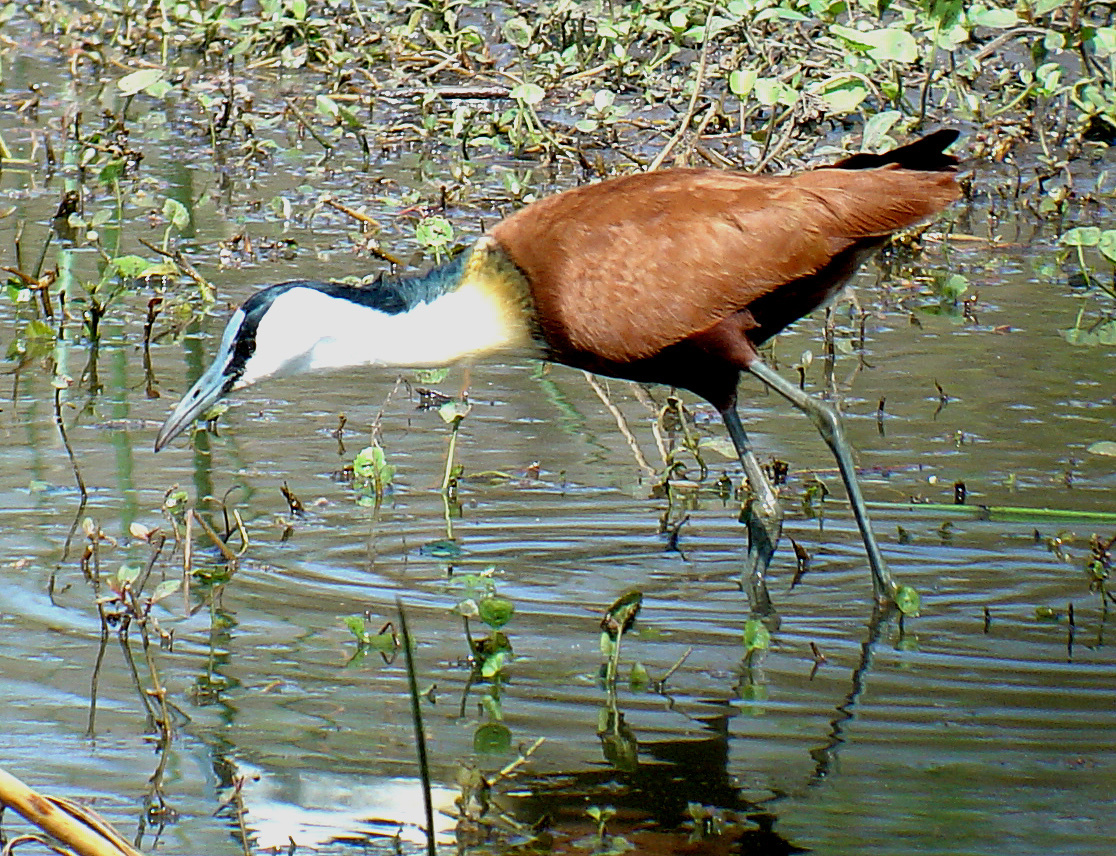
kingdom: Animalia
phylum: Chordata
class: Aves
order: Charadriiformes
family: Jacanidae
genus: Actophilornis
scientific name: Actophilornis africanus
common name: African jacana
